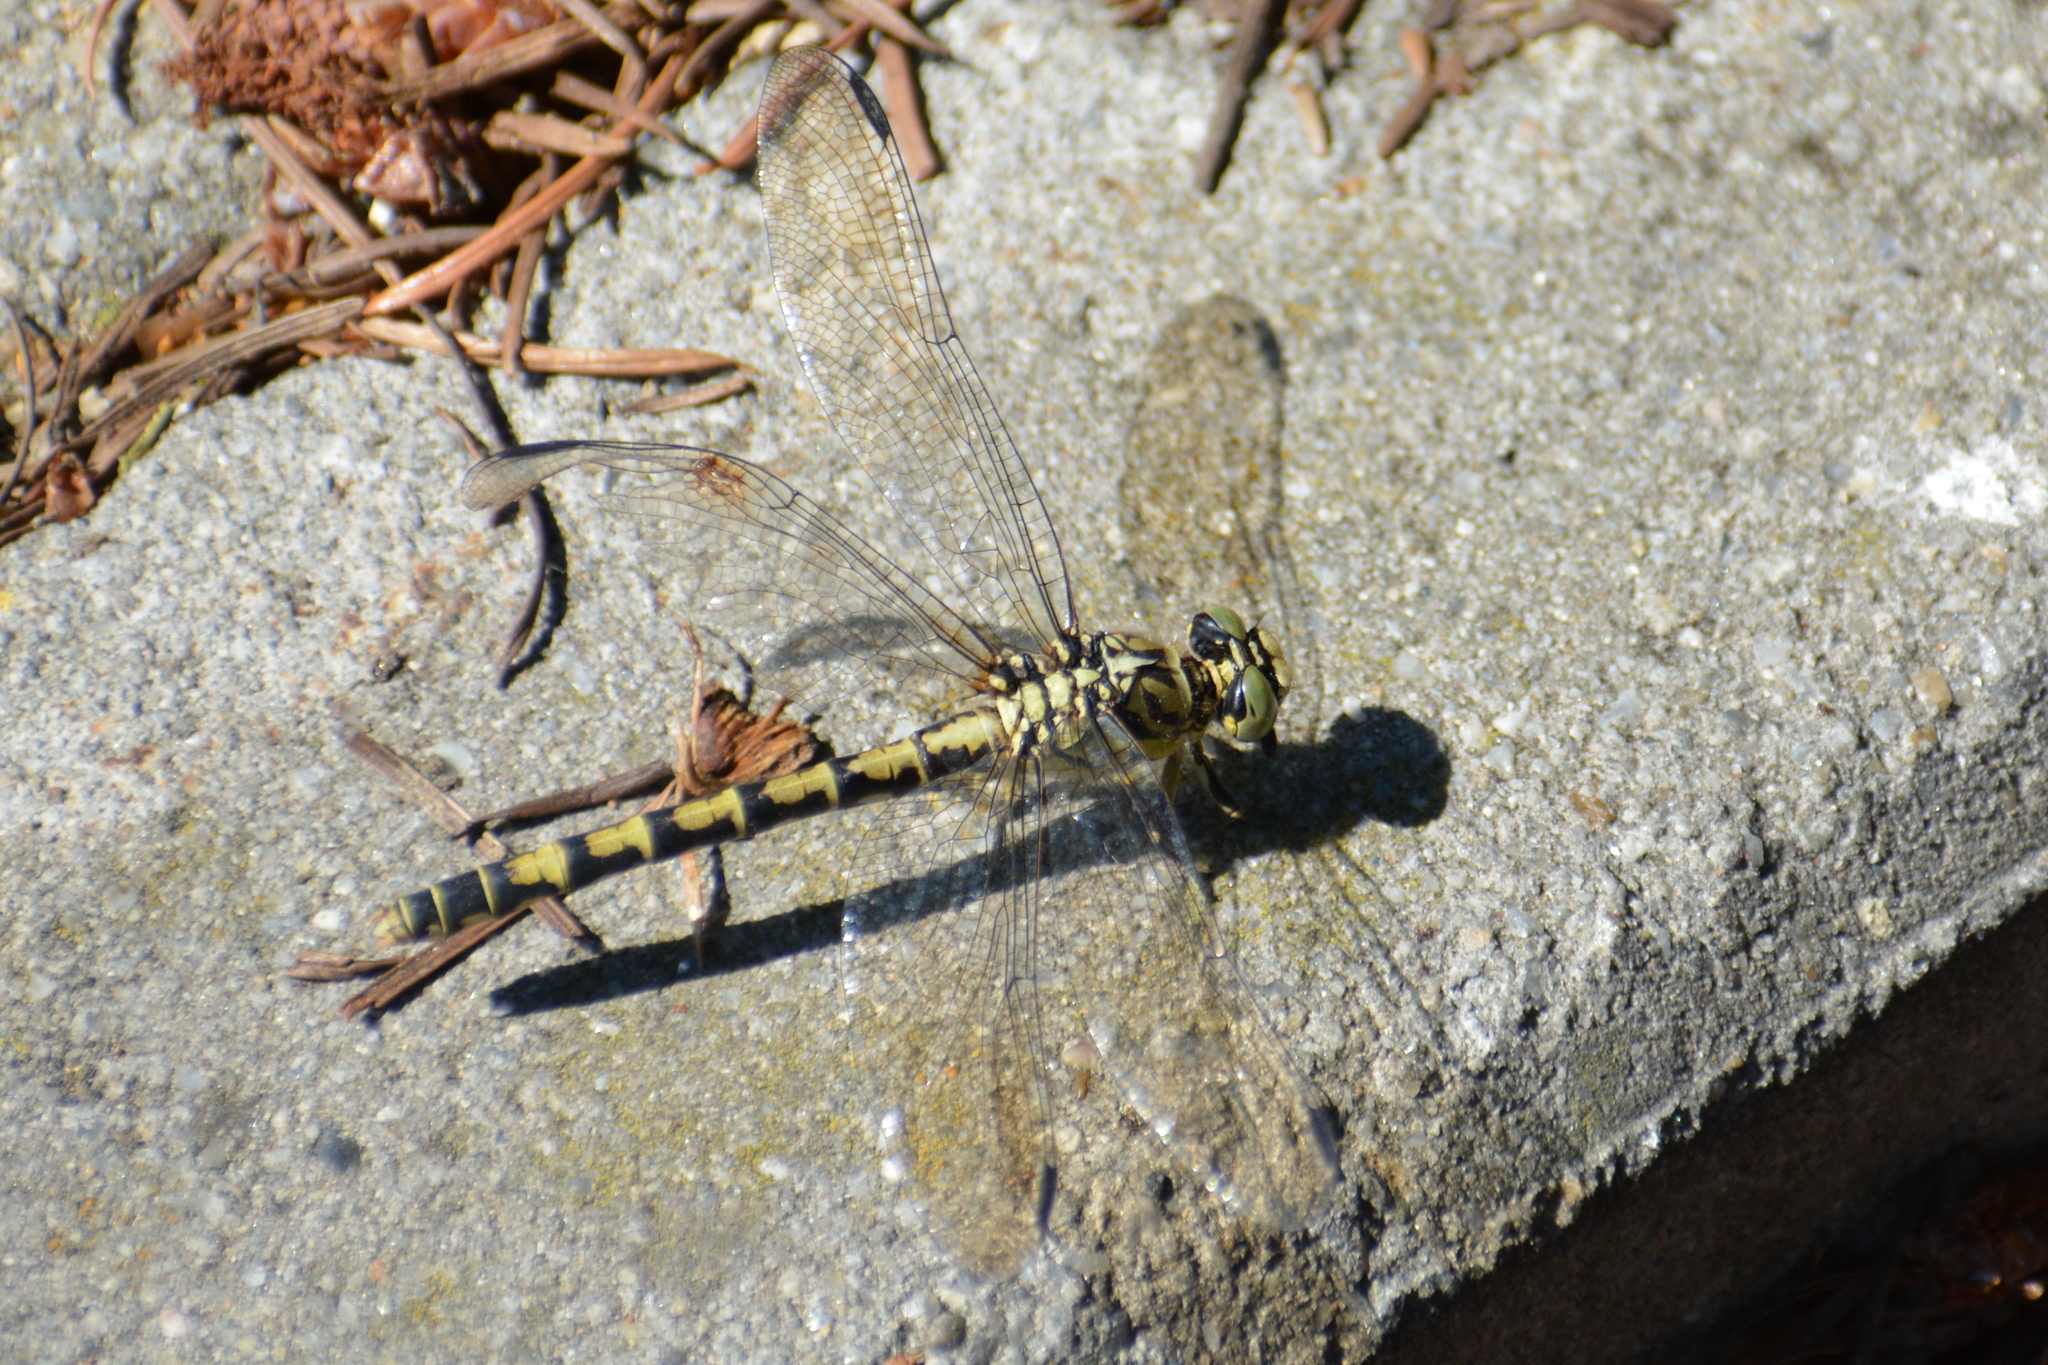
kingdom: Animalia
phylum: Arthropoda
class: Insecta
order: Odonata
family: Gomphidae
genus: Onychogomphus
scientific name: Onychogomphus forcipatus
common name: Small pincertail
